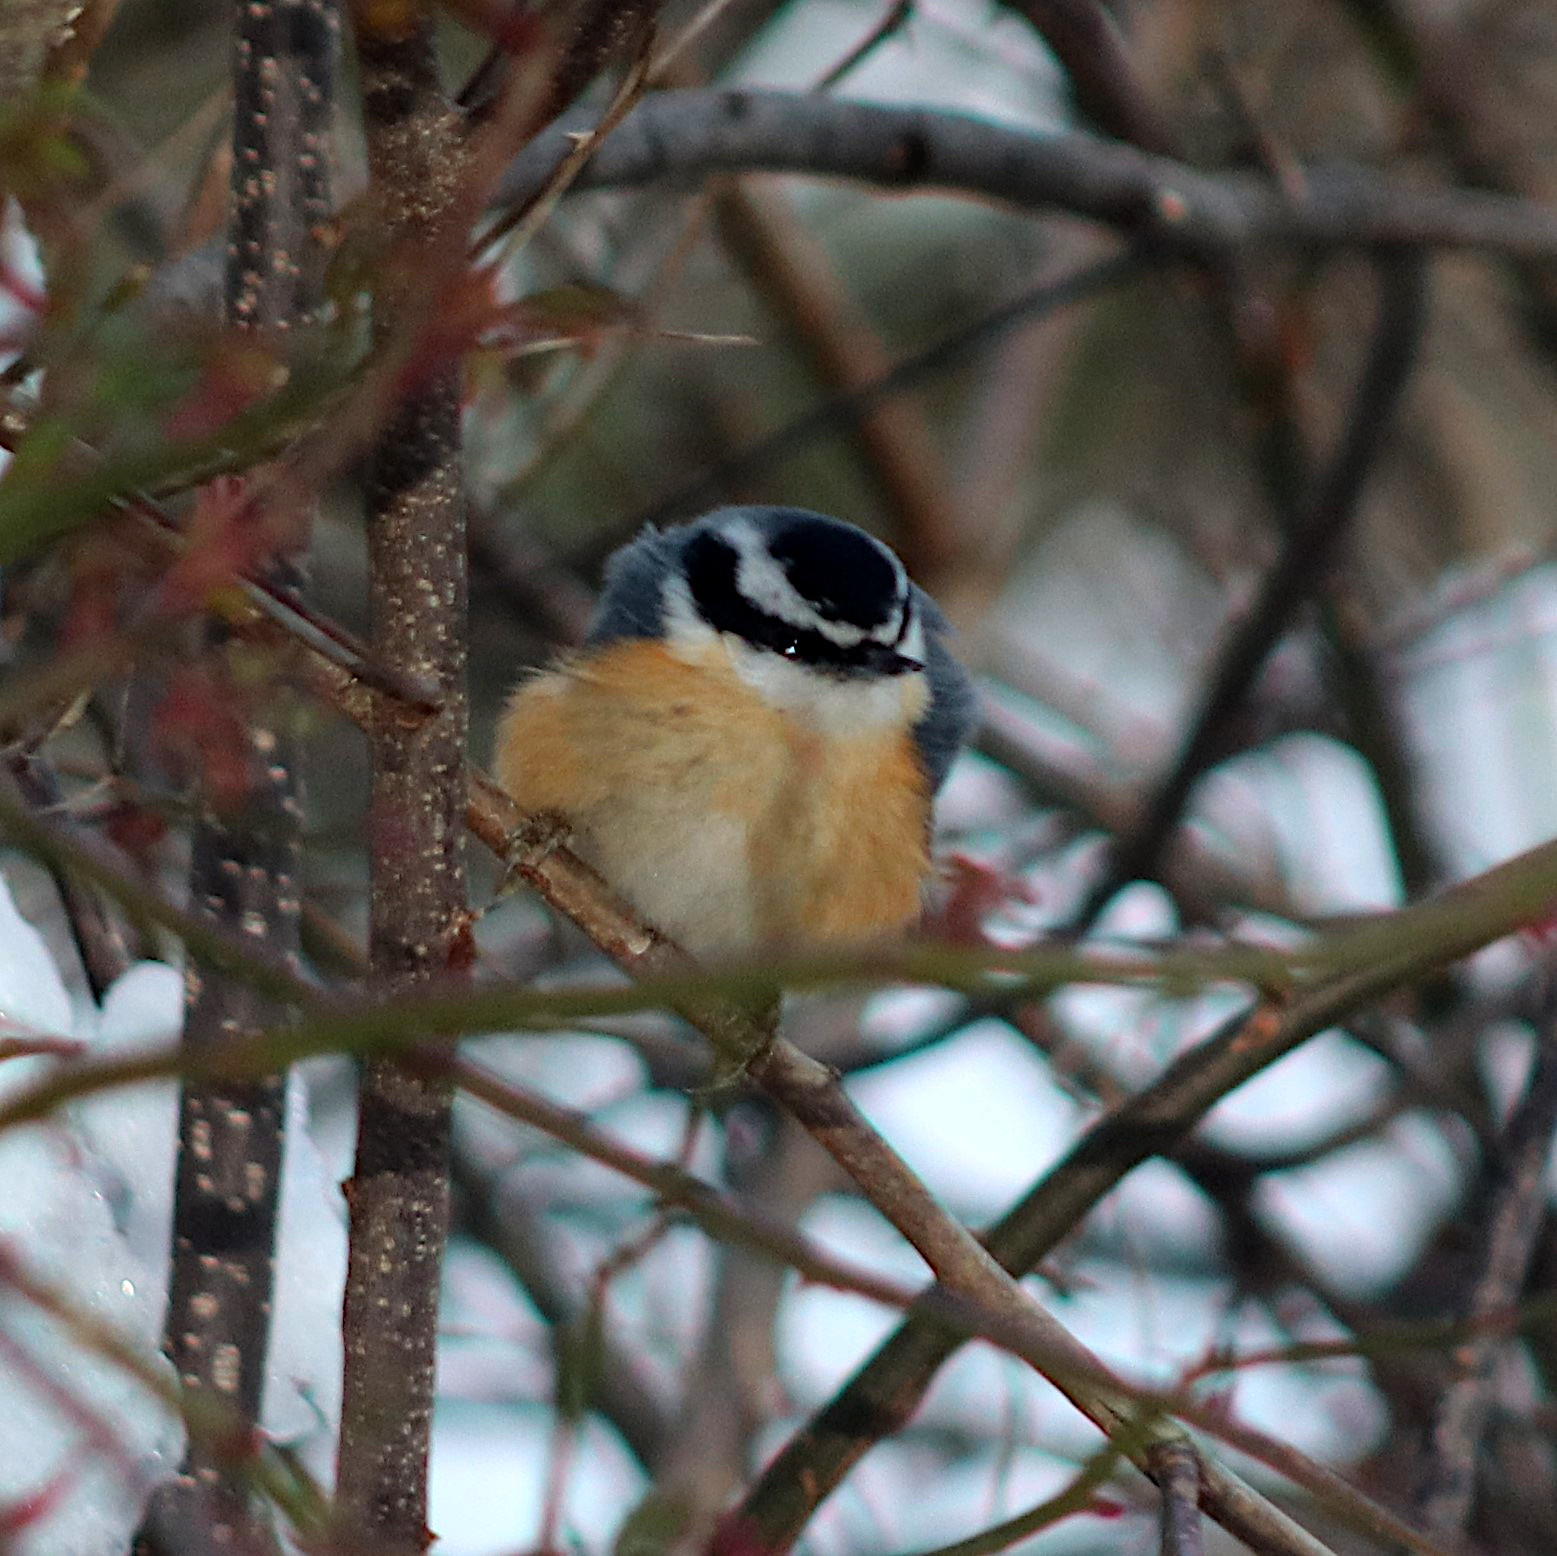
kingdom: Animalia
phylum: Chordata
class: Aves
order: Passeriformes
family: Sittidae
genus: Sitta
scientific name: Sitta canadensis
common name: Red-breasted nuthatch
